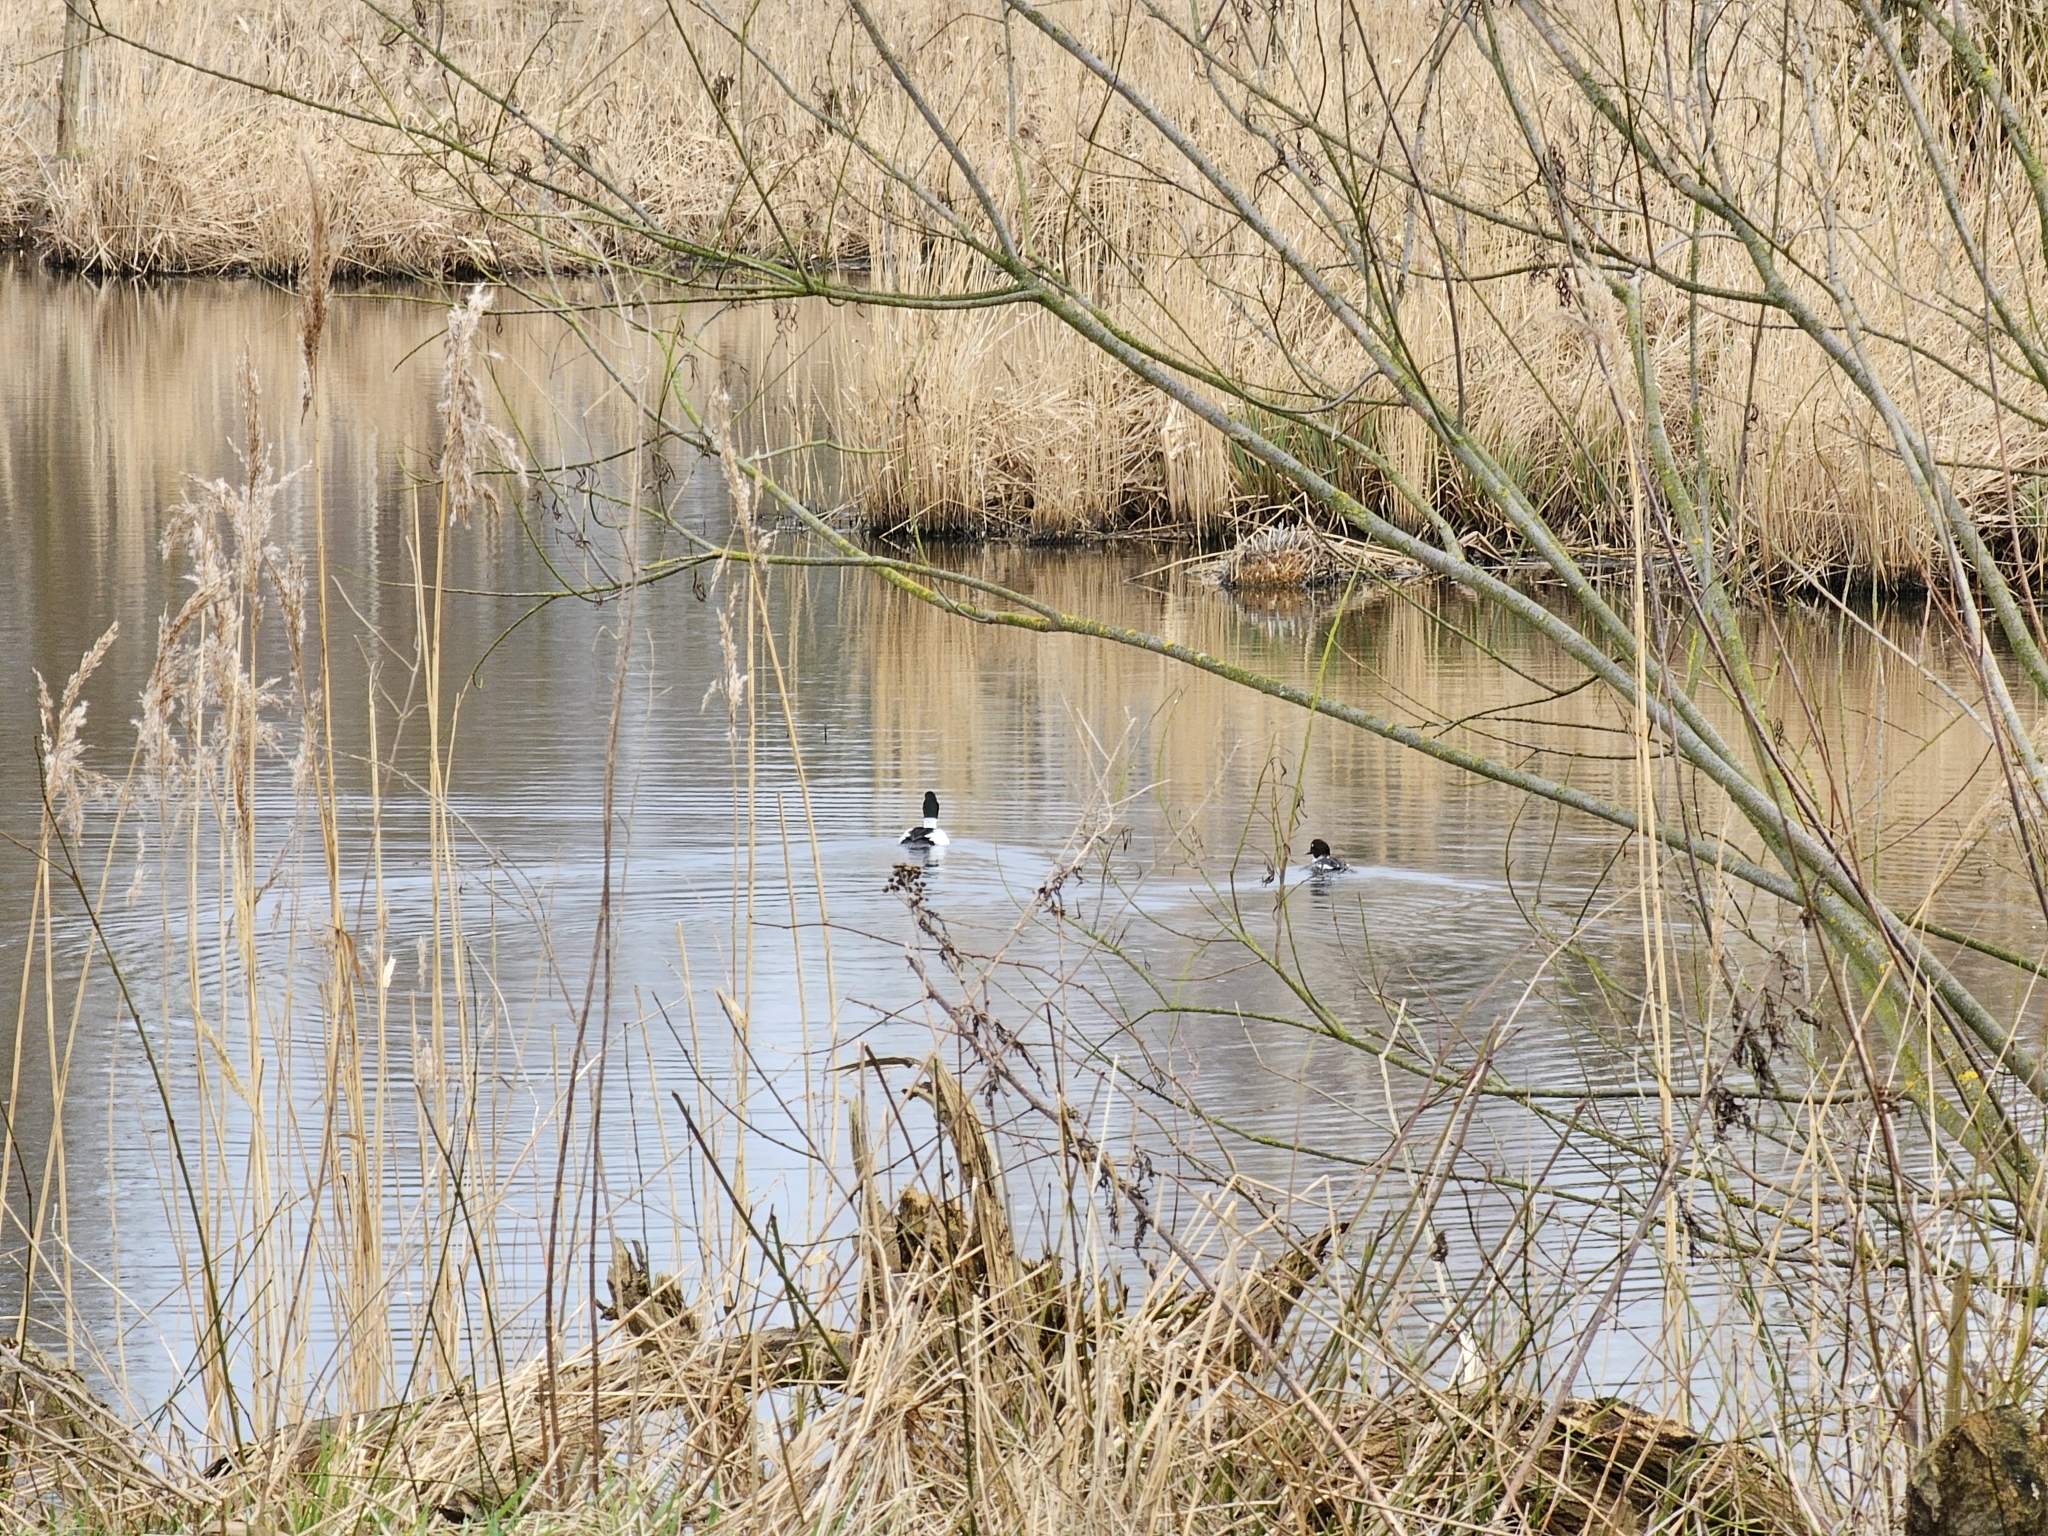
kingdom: Animalia
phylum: Chordata
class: Aves
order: Anseriformes
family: Anatidae
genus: Bucephala
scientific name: Bucephala clangula
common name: Common goldeneye
